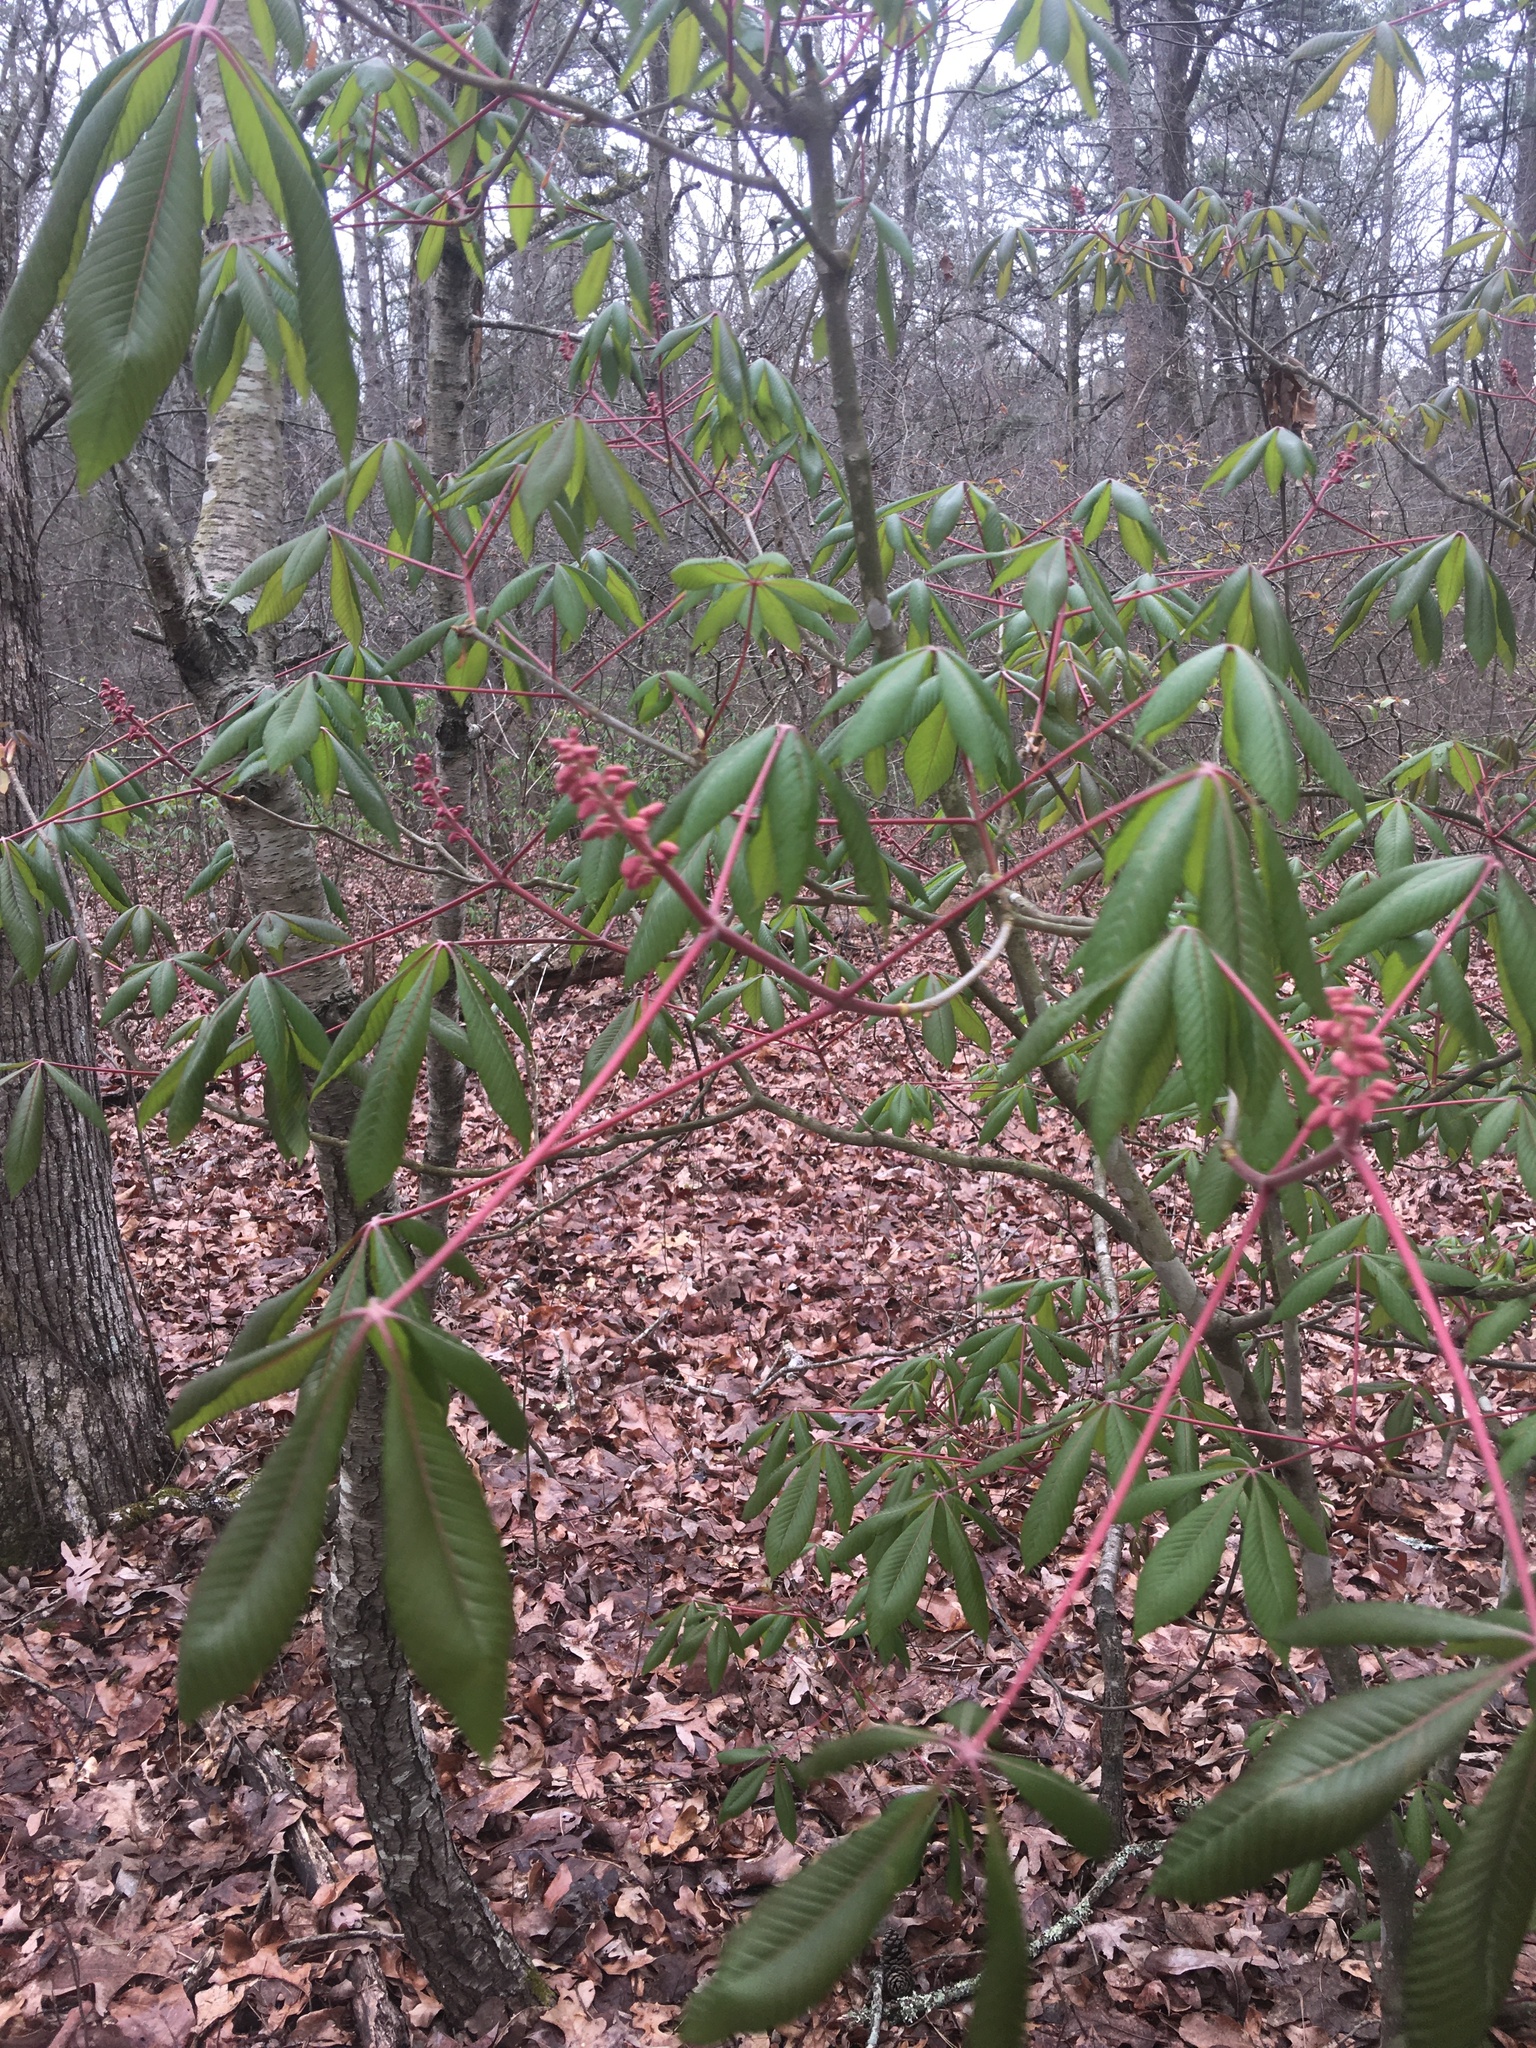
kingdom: Plantae
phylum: Tracheophyta
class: Magnoliopsida
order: Sapindales
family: Sapindaceae
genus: Aesculus
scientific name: Aesculus pavia
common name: Red buckeye
